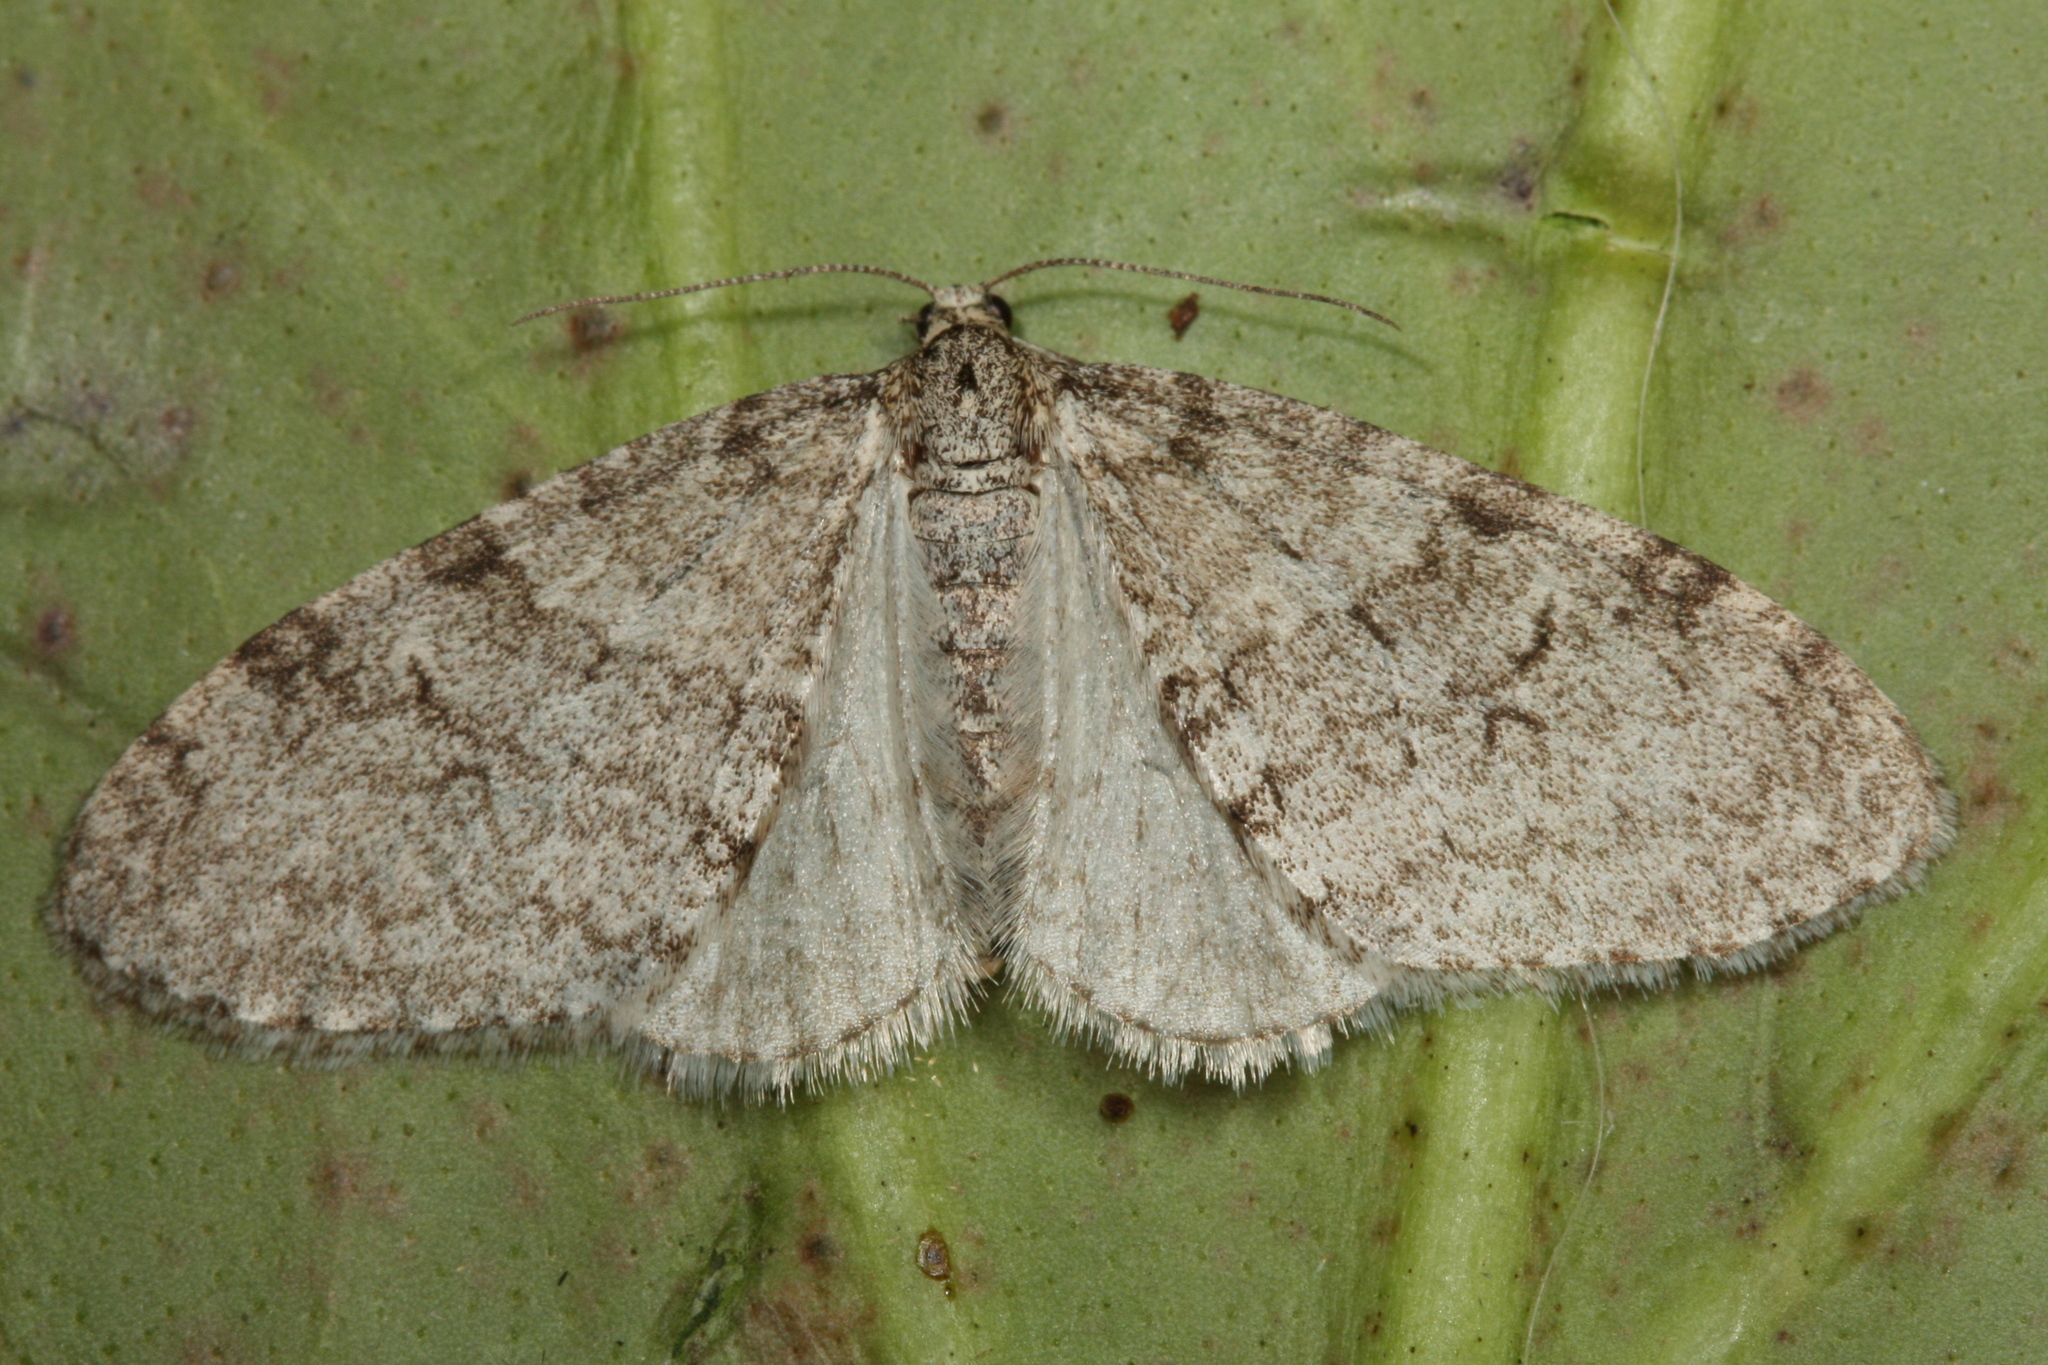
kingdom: Animalia
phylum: Arthropoda
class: Insecta
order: Lepidoptera
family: Geometridae
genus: Trichopteryx
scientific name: Trichopteryx carpinata
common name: Early tooth-striped
